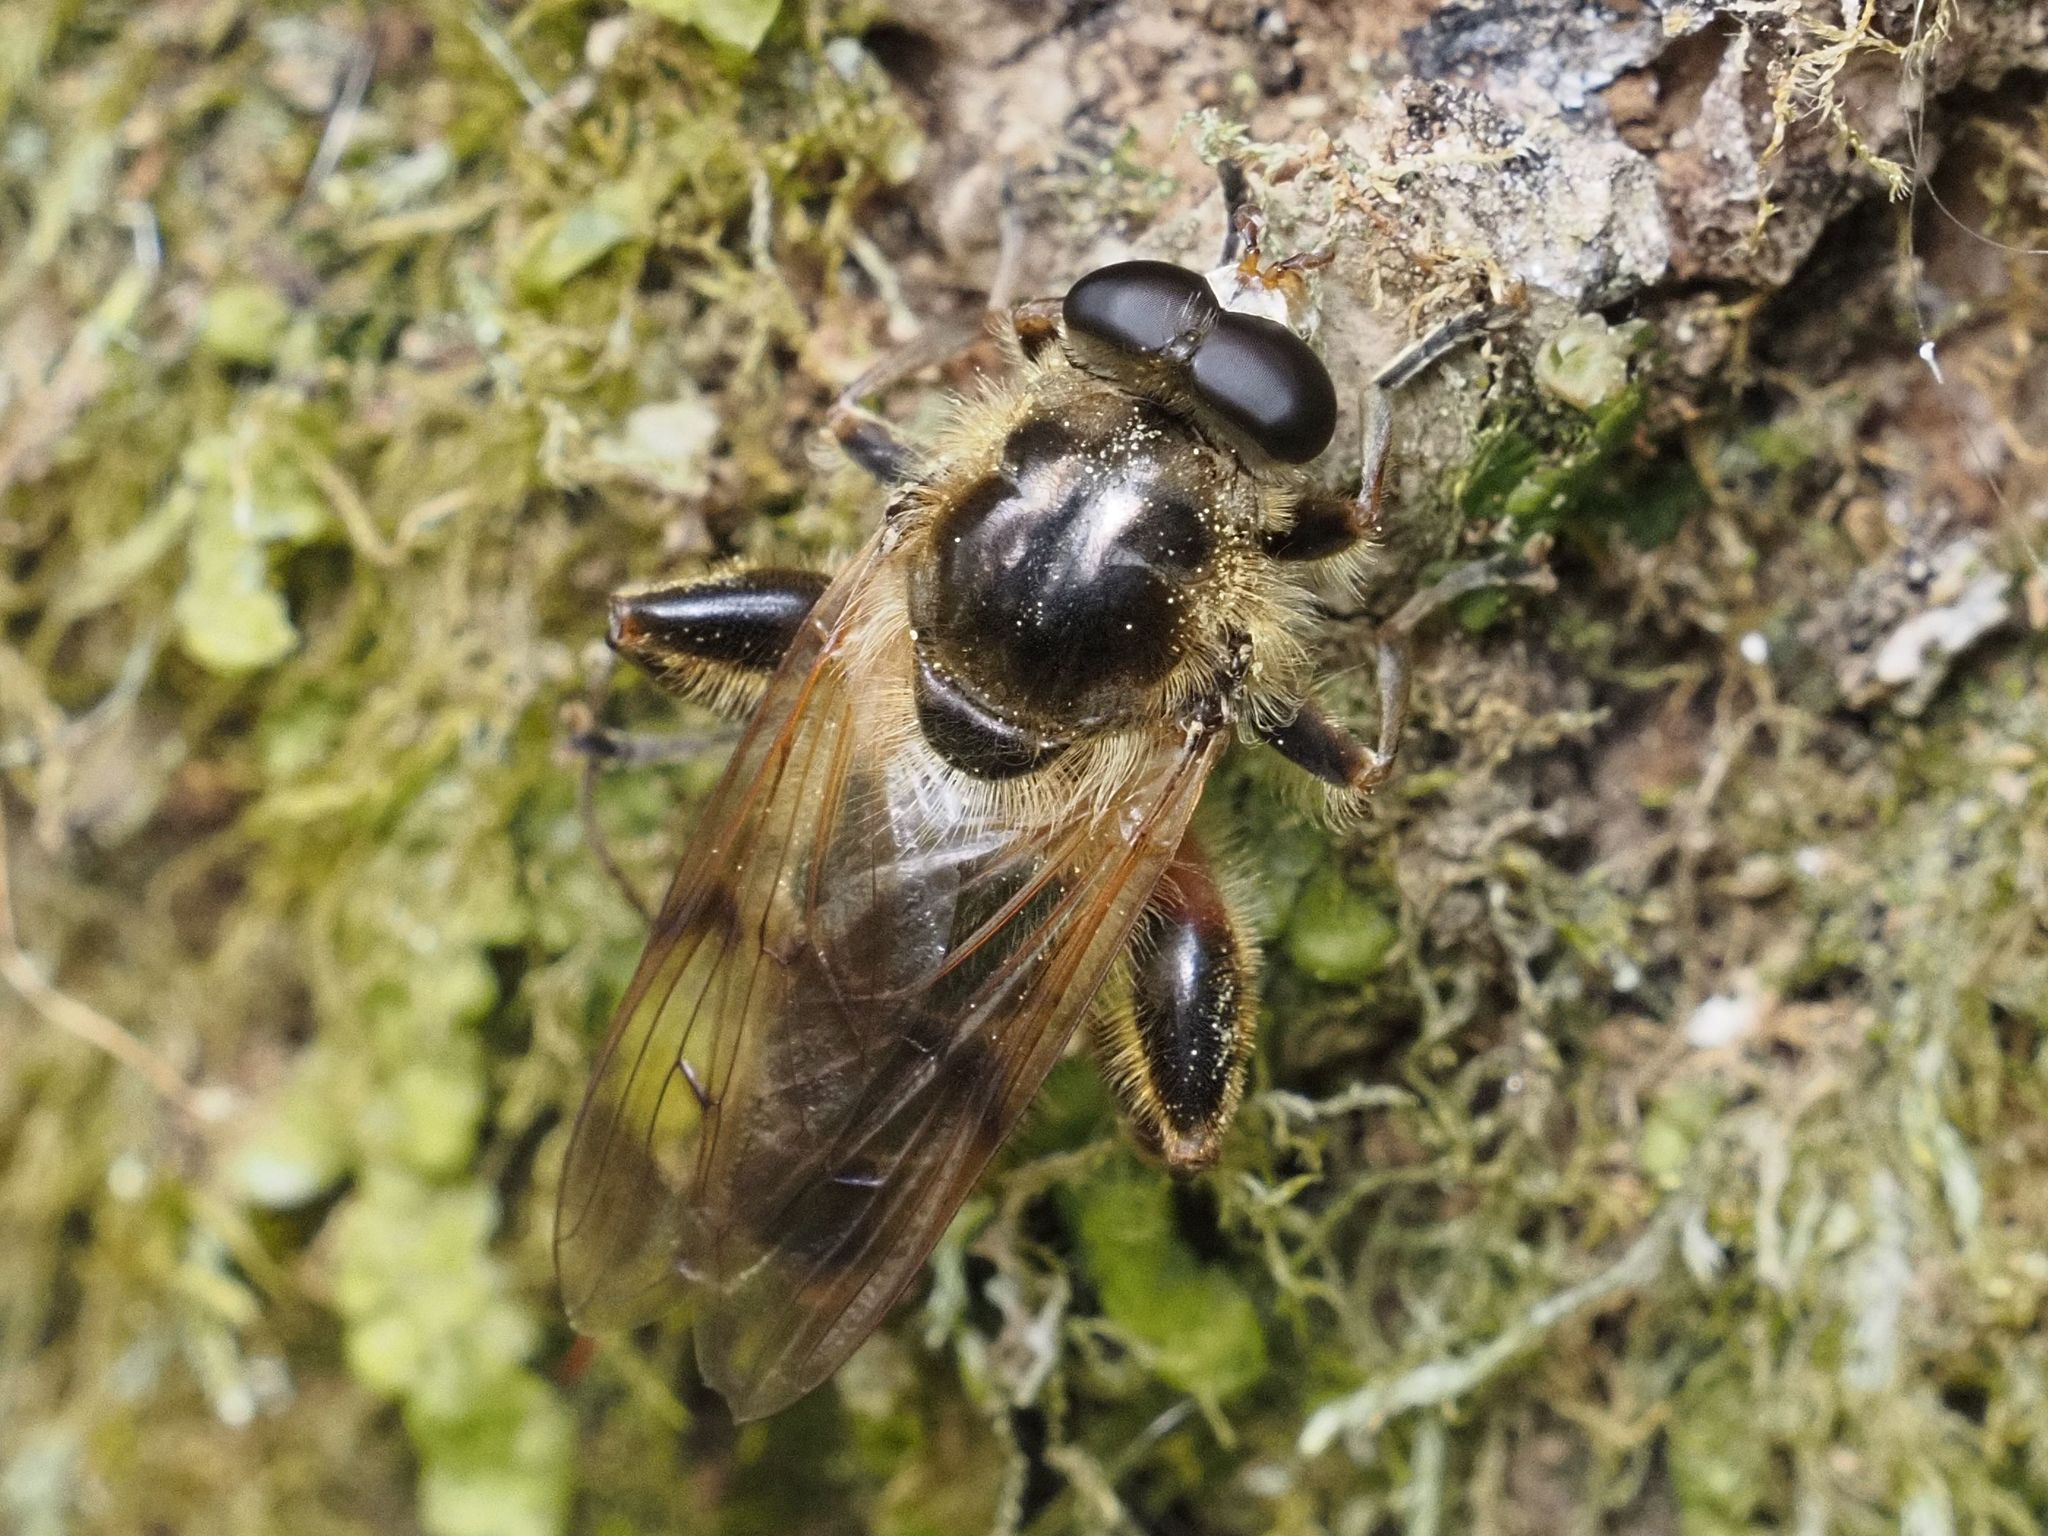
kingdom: Animalia
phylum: Arthropoda
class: Insecta
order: Diptera
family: Syrphidae
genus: Brachypalpus
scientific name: Brachypalpus valgus
